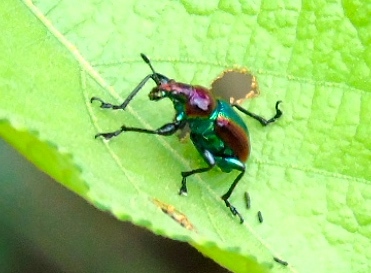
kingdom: Animalia
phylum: Arthropoda
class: Insecta
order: Coleoptera
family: Attelabidae
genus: Pilolabus
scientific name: Pilolabus viridans
